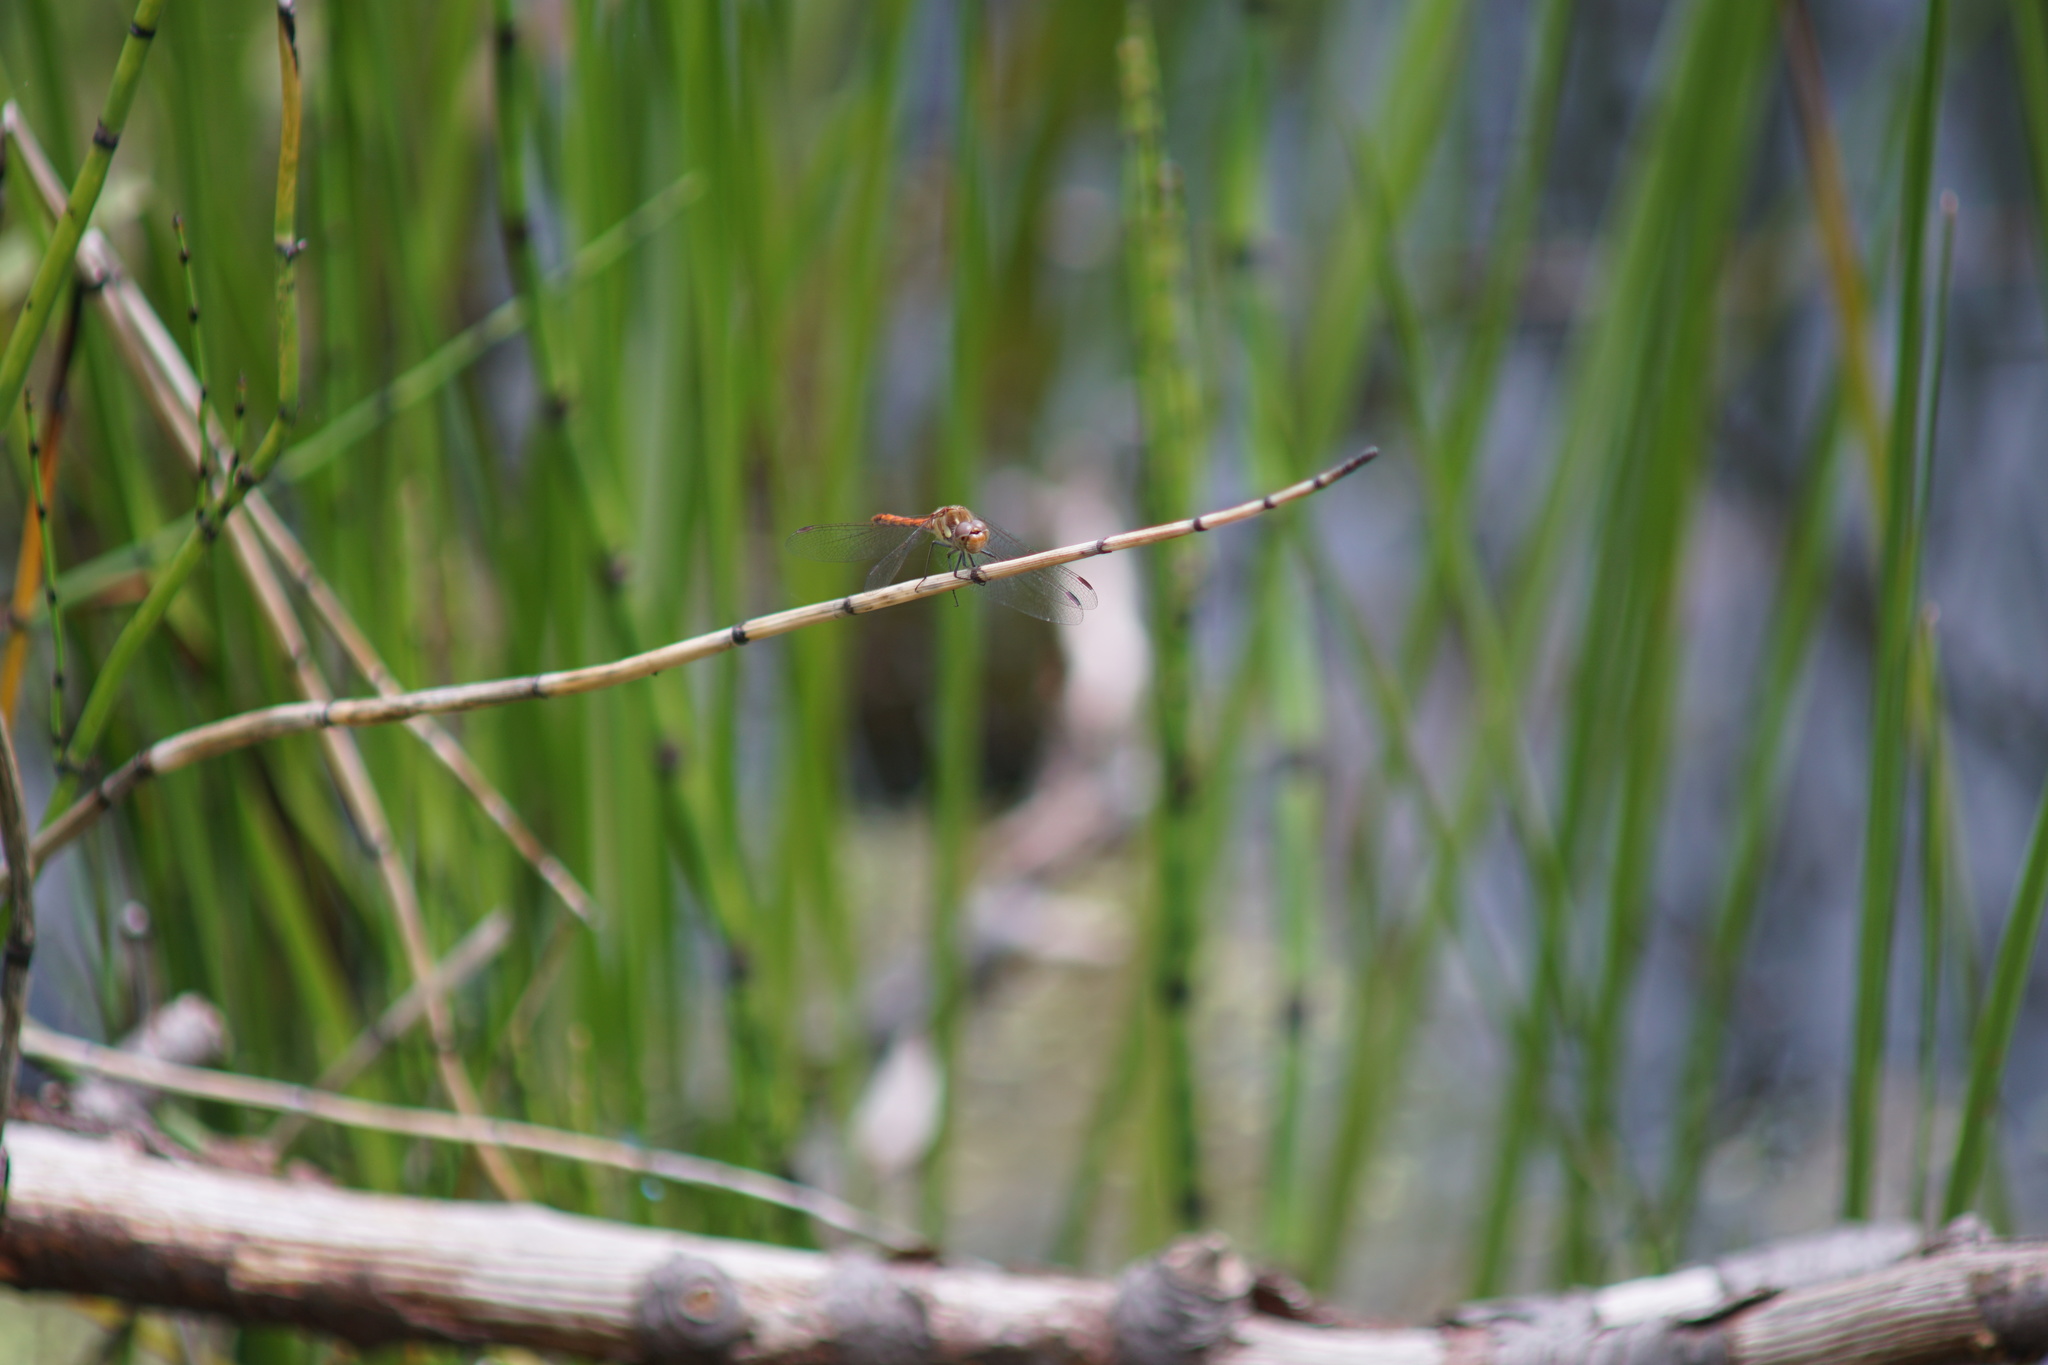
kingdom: Animalia
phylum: Arthropoda
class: Insecta
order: Odonata
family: Libellulidae
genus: Sympetrum
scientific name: Sympetrum striolatum
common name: Common darter
